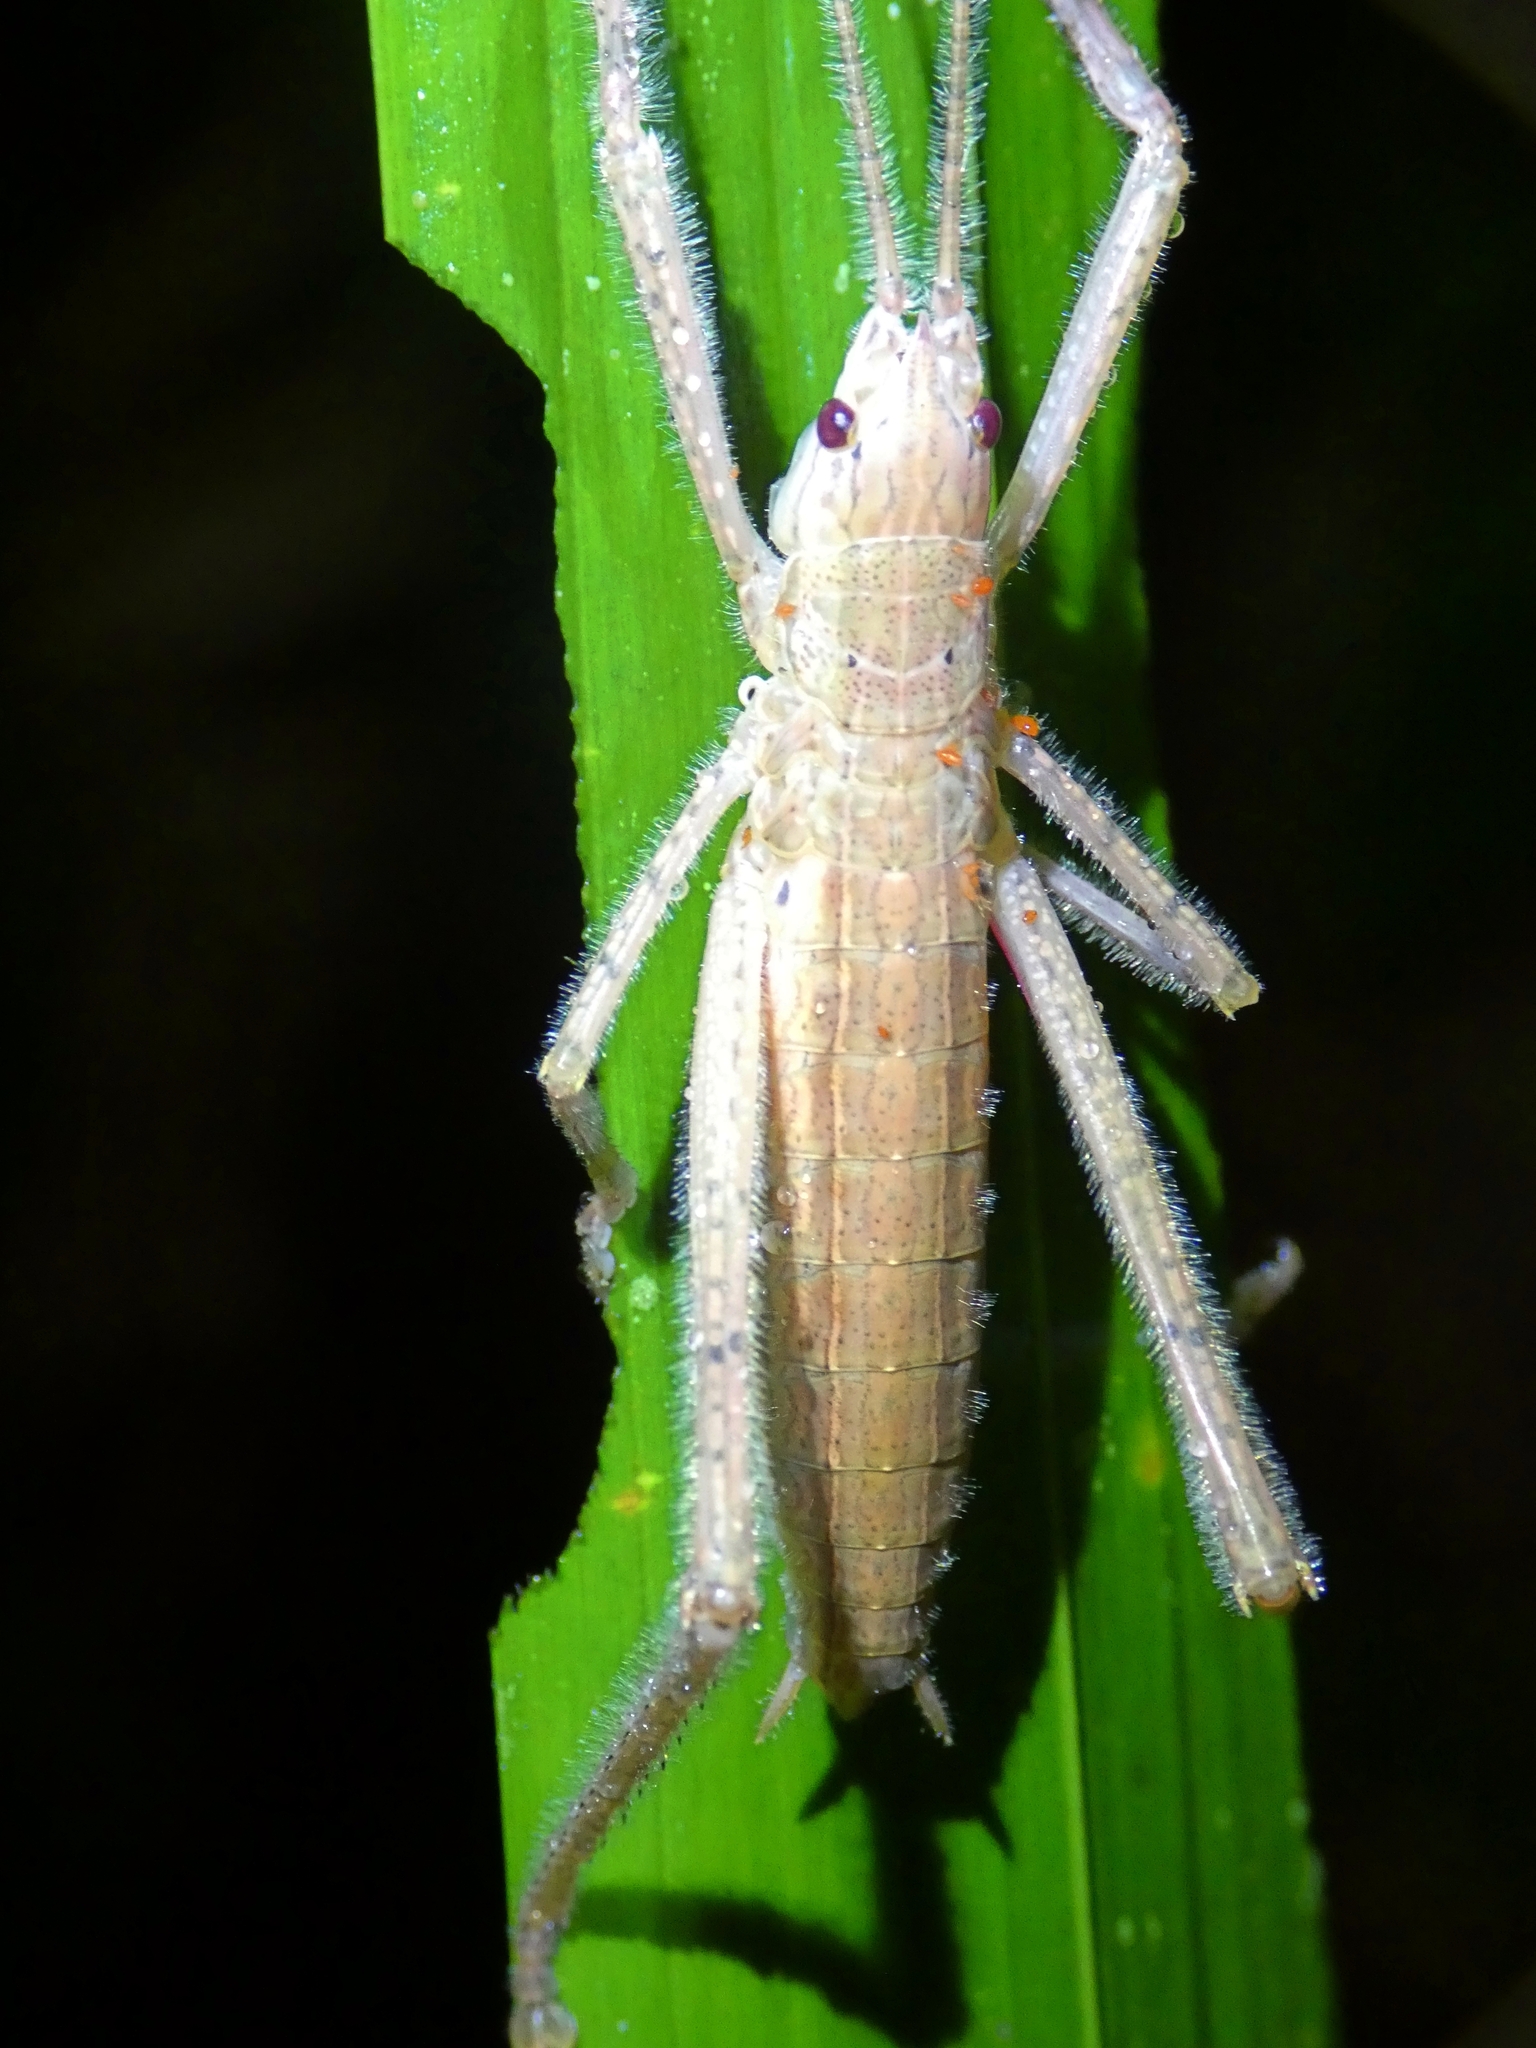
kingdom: Animalia
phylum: Arthropoda
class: Insecta
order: Orthoptera
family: Tettigoniidae
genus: Segestidea
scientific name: Segestidea queenslandica
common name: Queensland palm katydid
